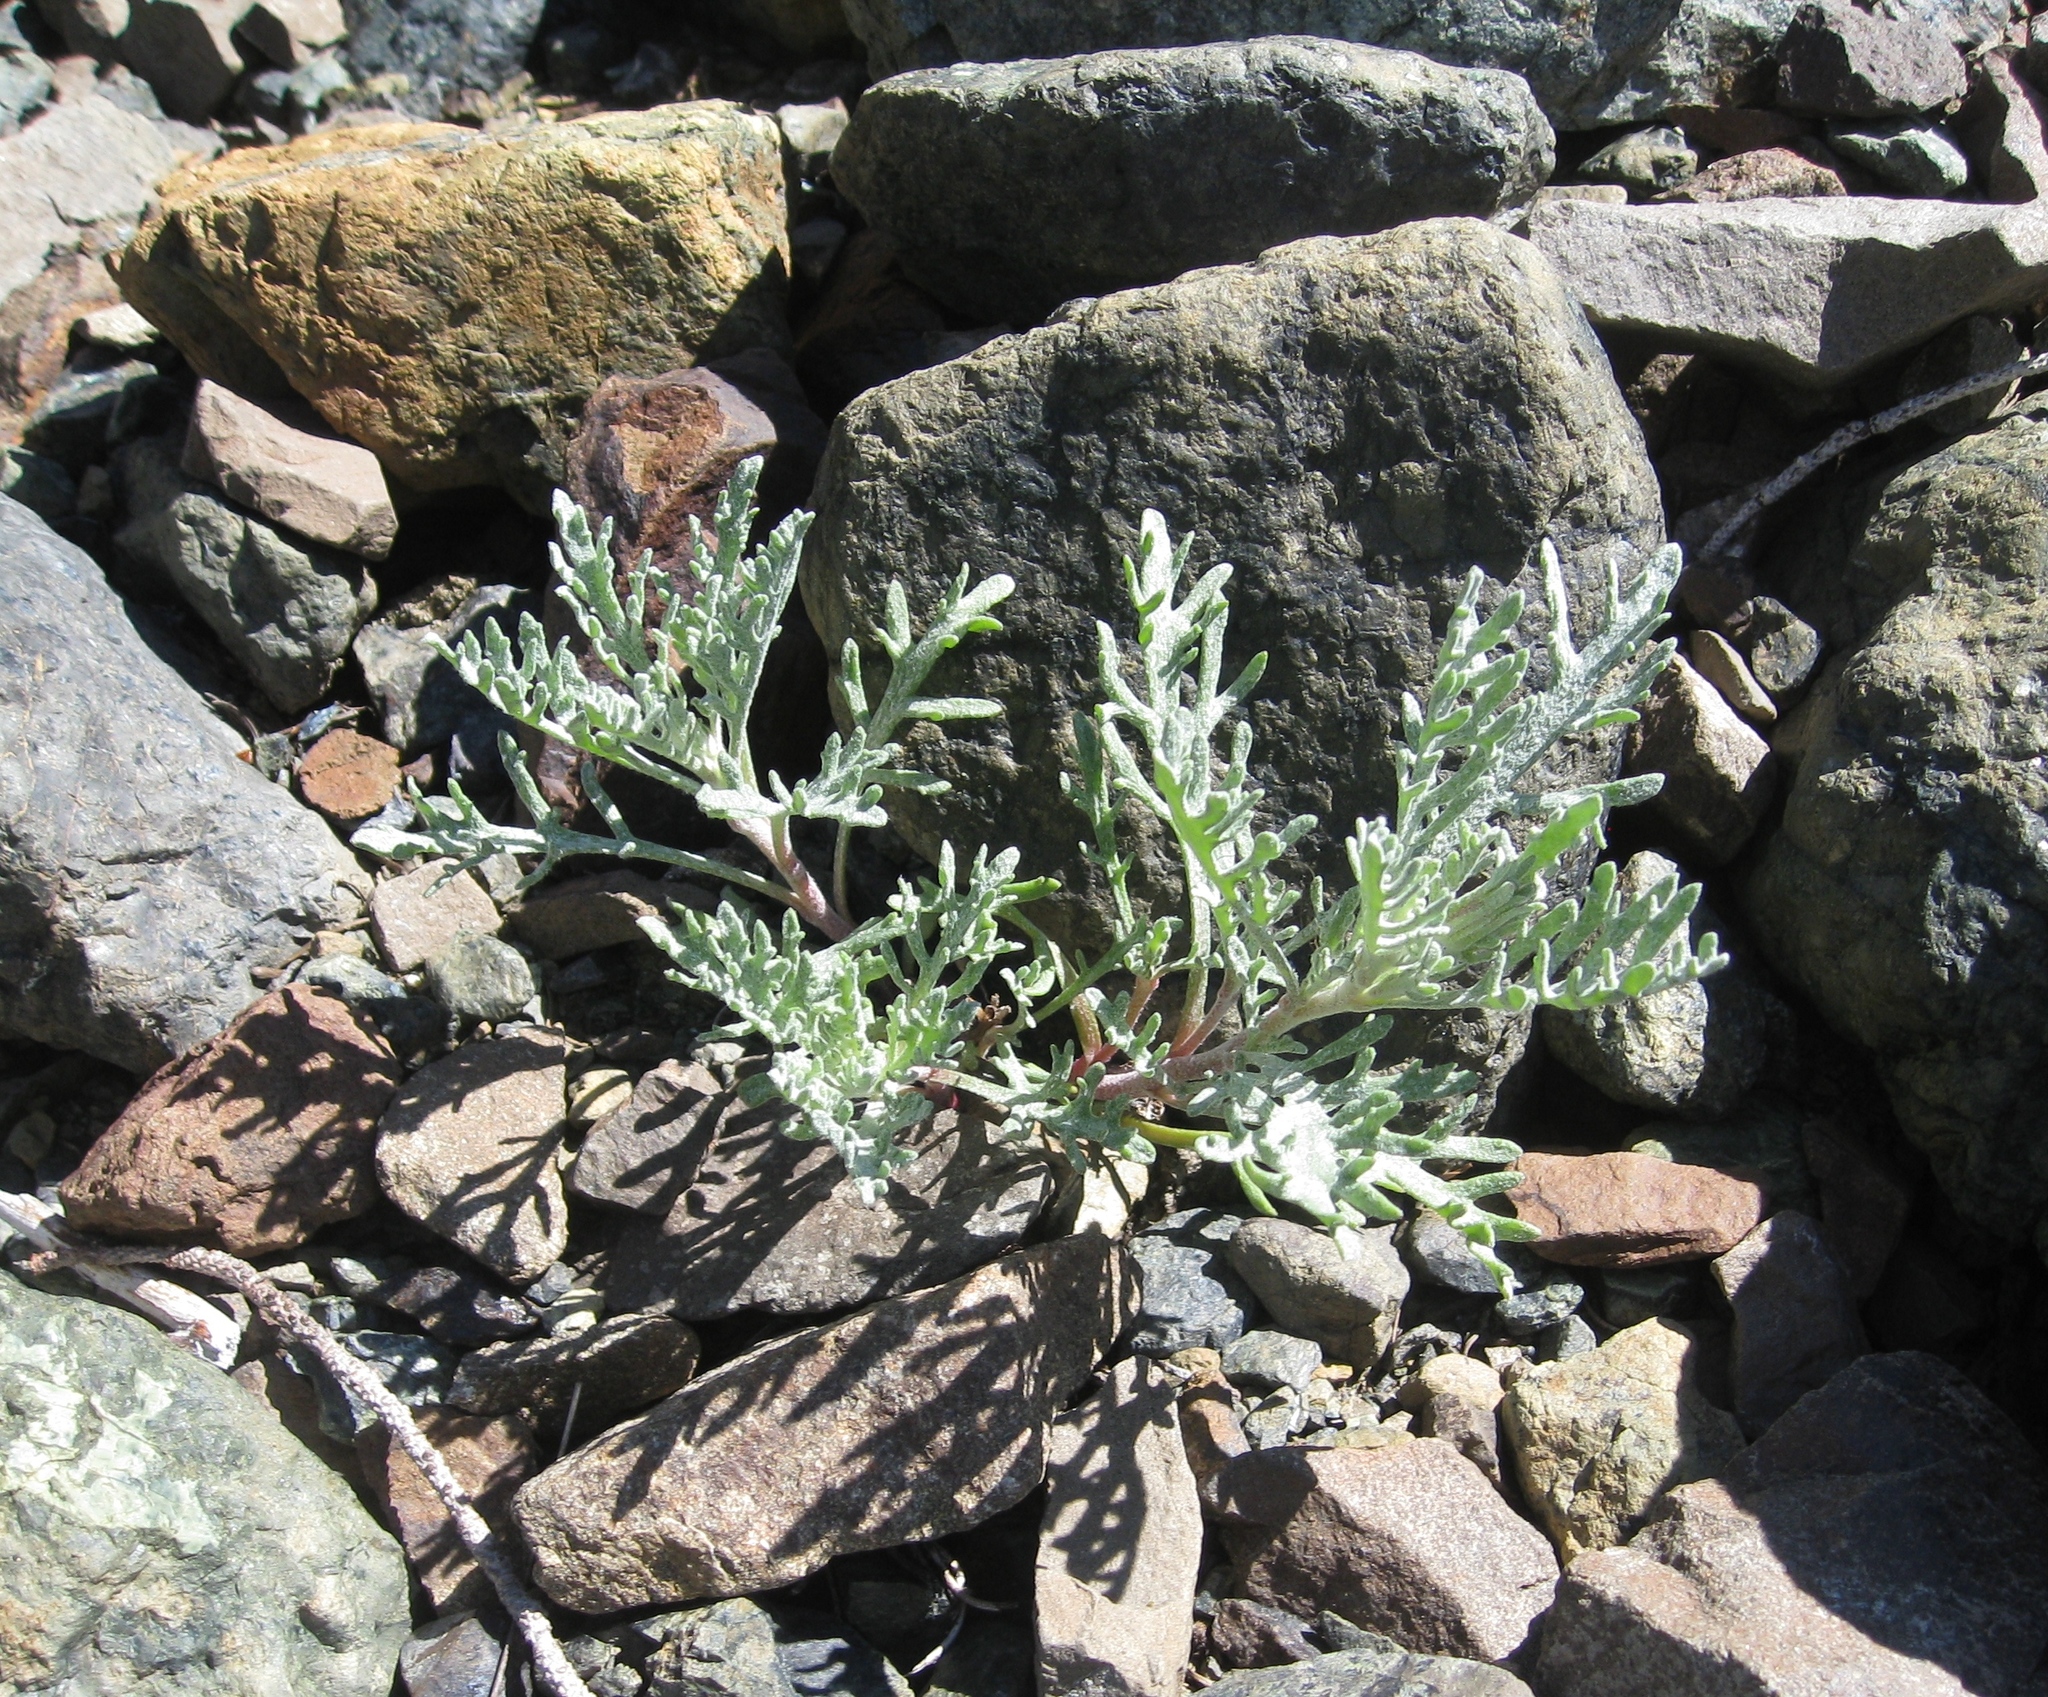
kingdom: Plantae
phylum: Tracheophyta
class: Magnoliopsida
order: Asterales
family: Asteraceae
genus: Chaenactis
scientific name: Chaenactis thompsonii
